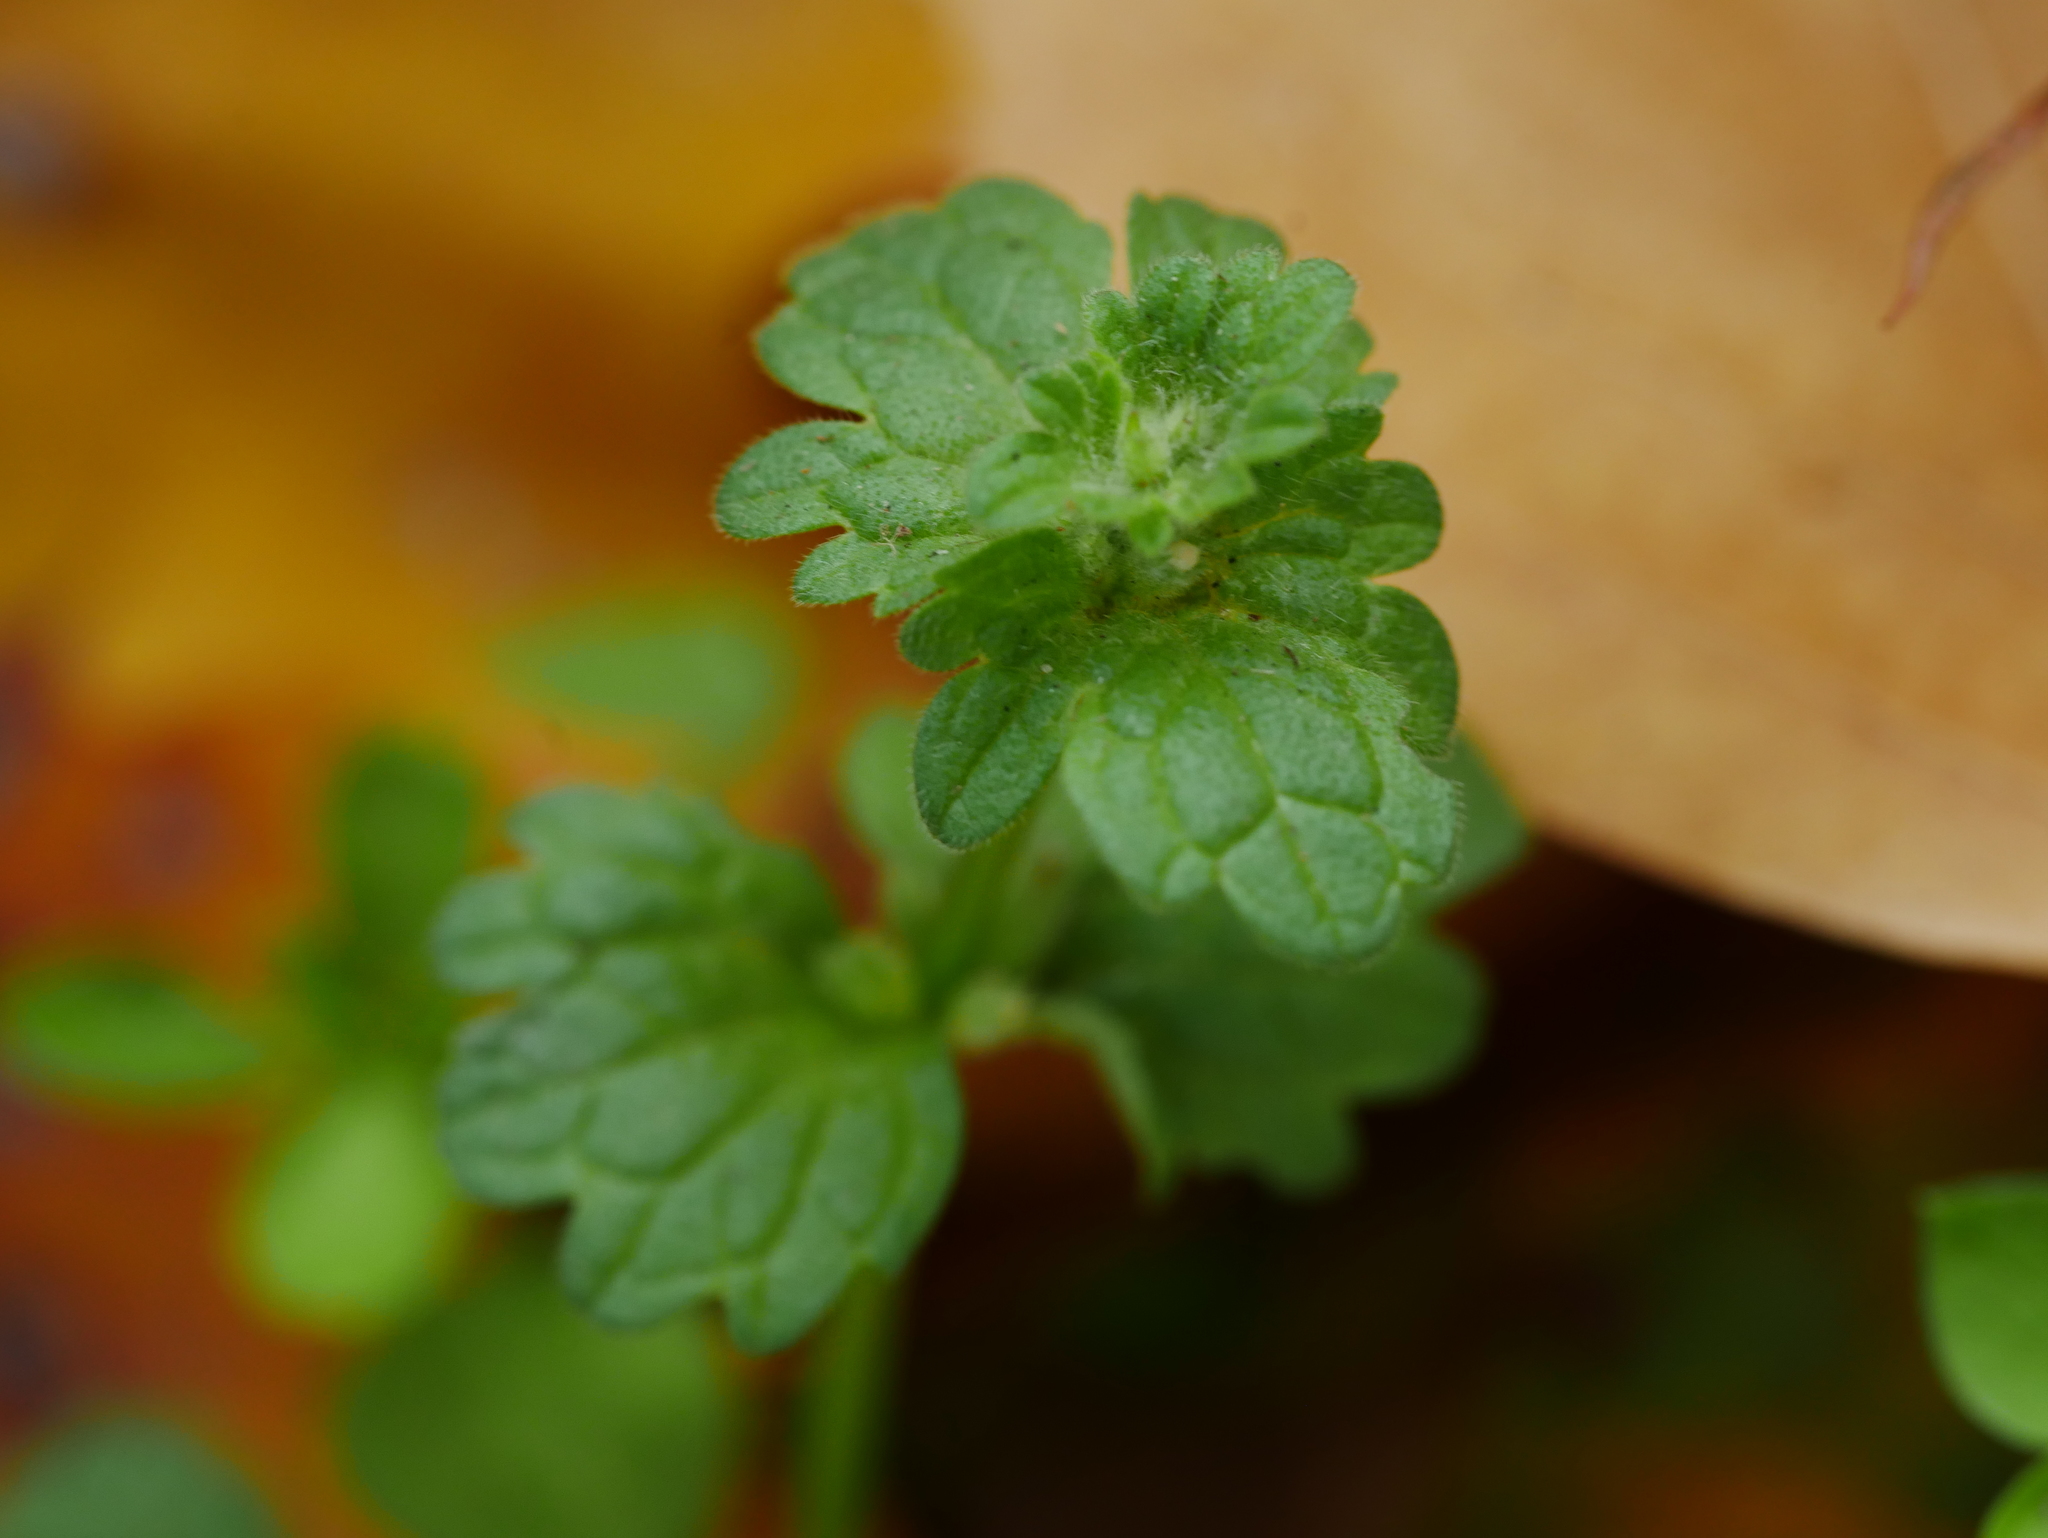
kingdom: Plantae
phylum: Tracheophyta
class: Magnoliopsida
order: Lamiales
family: Lamiaceae
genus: Lamium
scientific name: Lamium amplexicaule
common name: Henbit dead-nettle
